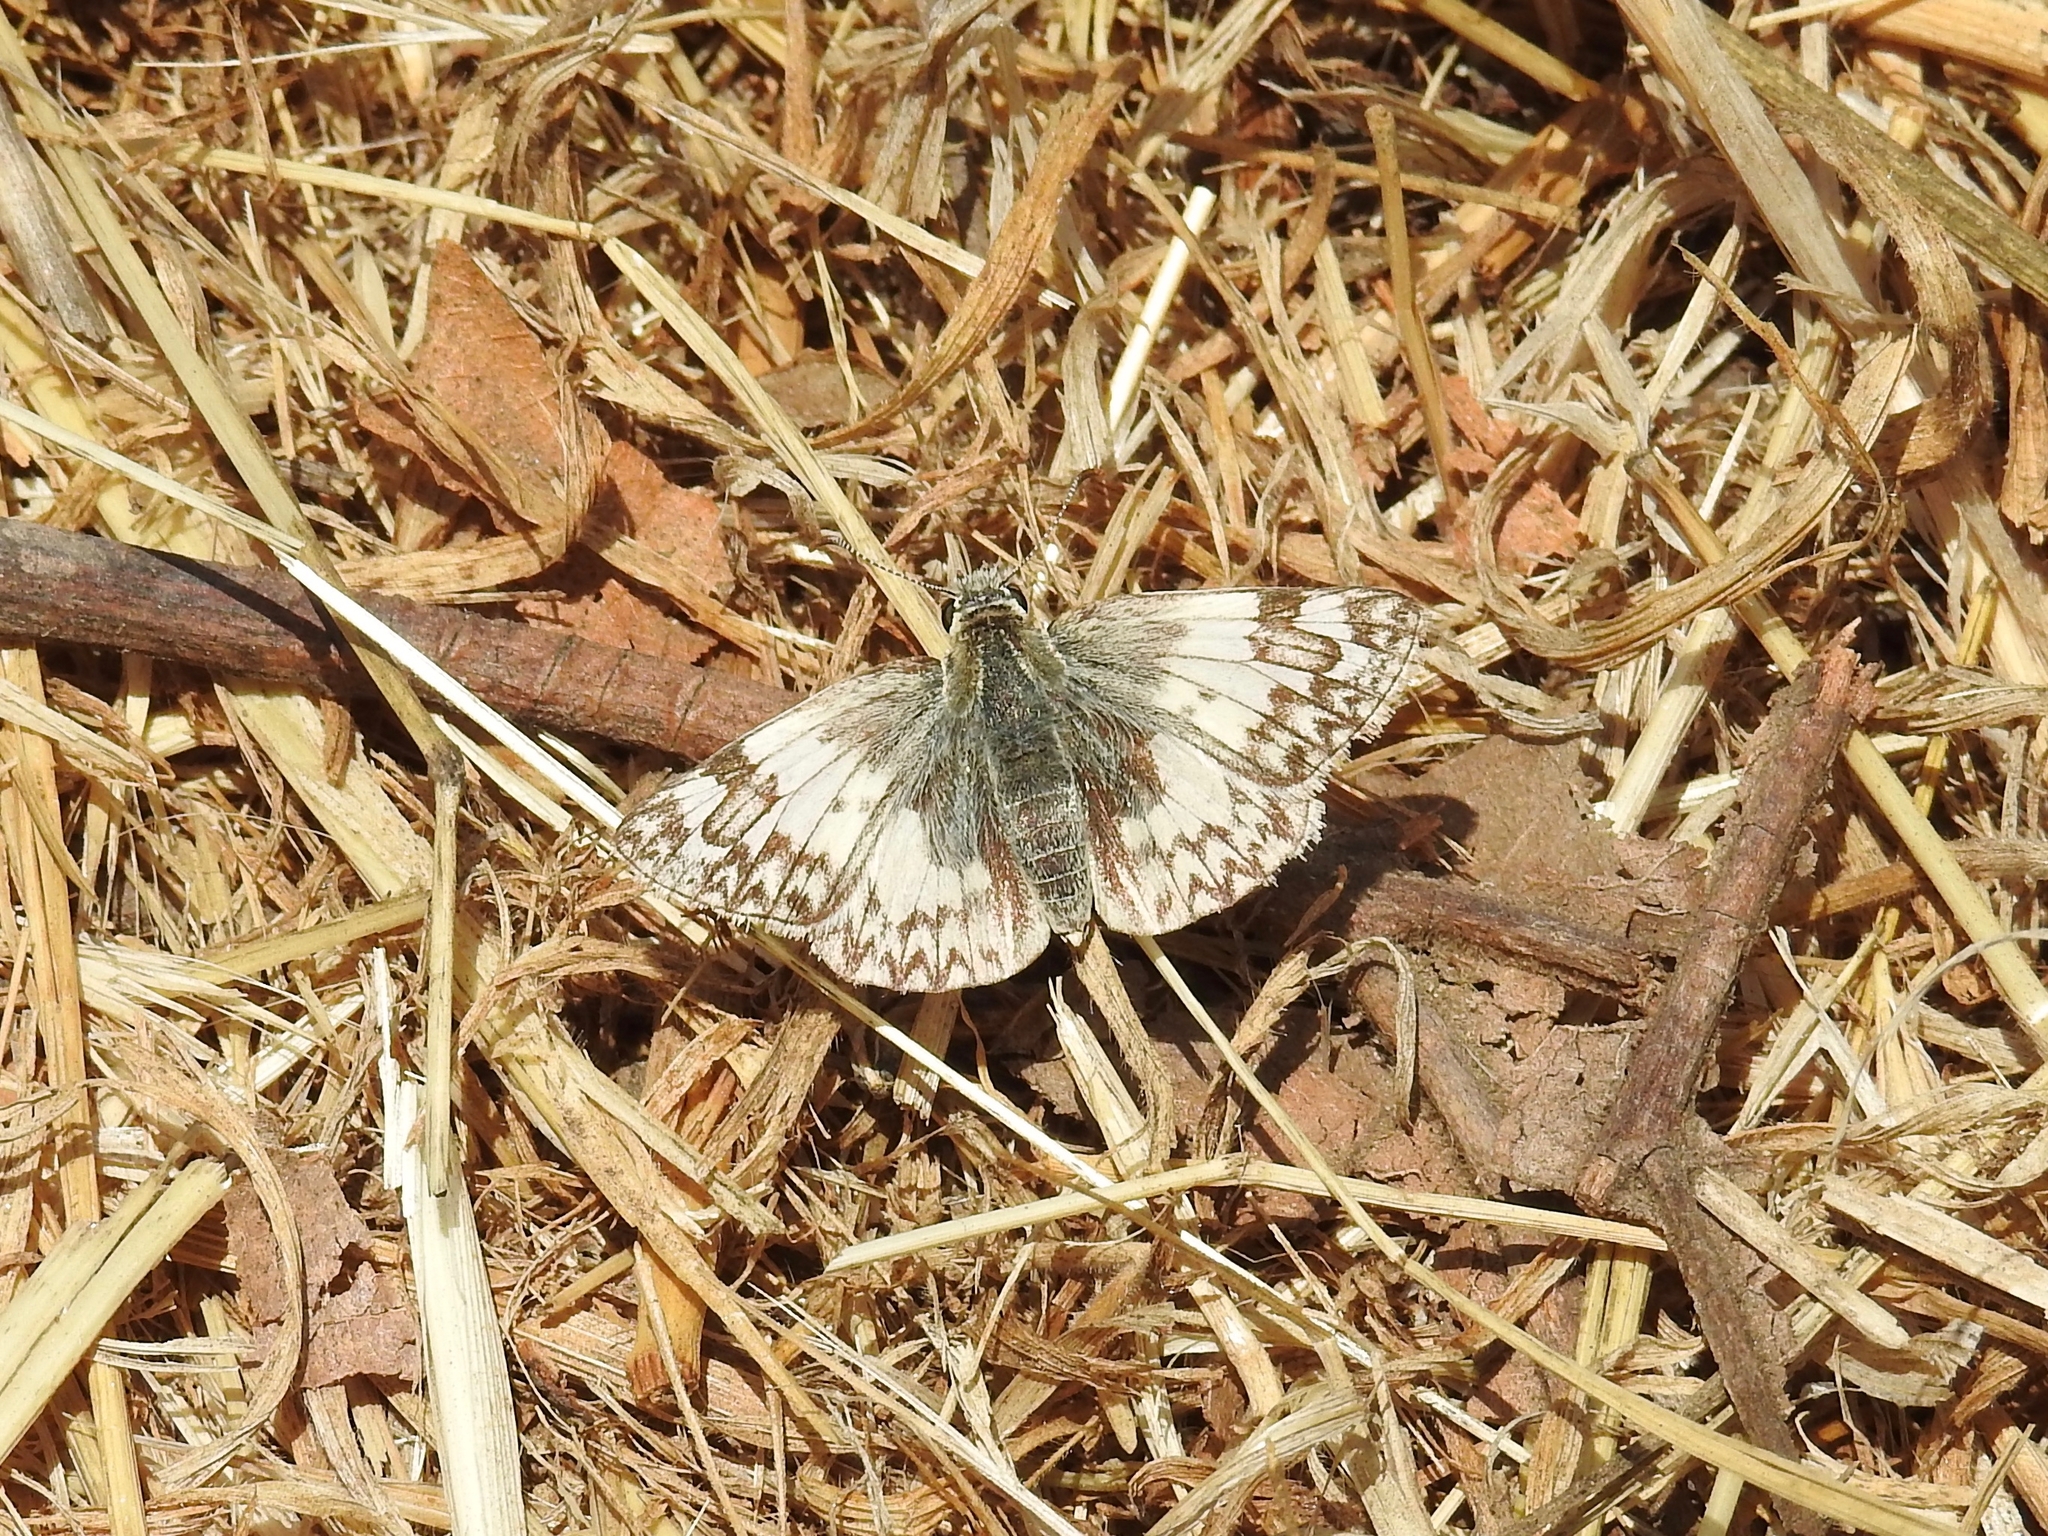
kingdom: Animalia
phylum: Arthropoda
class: Insecta
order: Lepidoptera
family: Hesperiidae
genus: Heliopetes
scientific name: Heliopetes ericetorum
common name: Northern white-skipper
